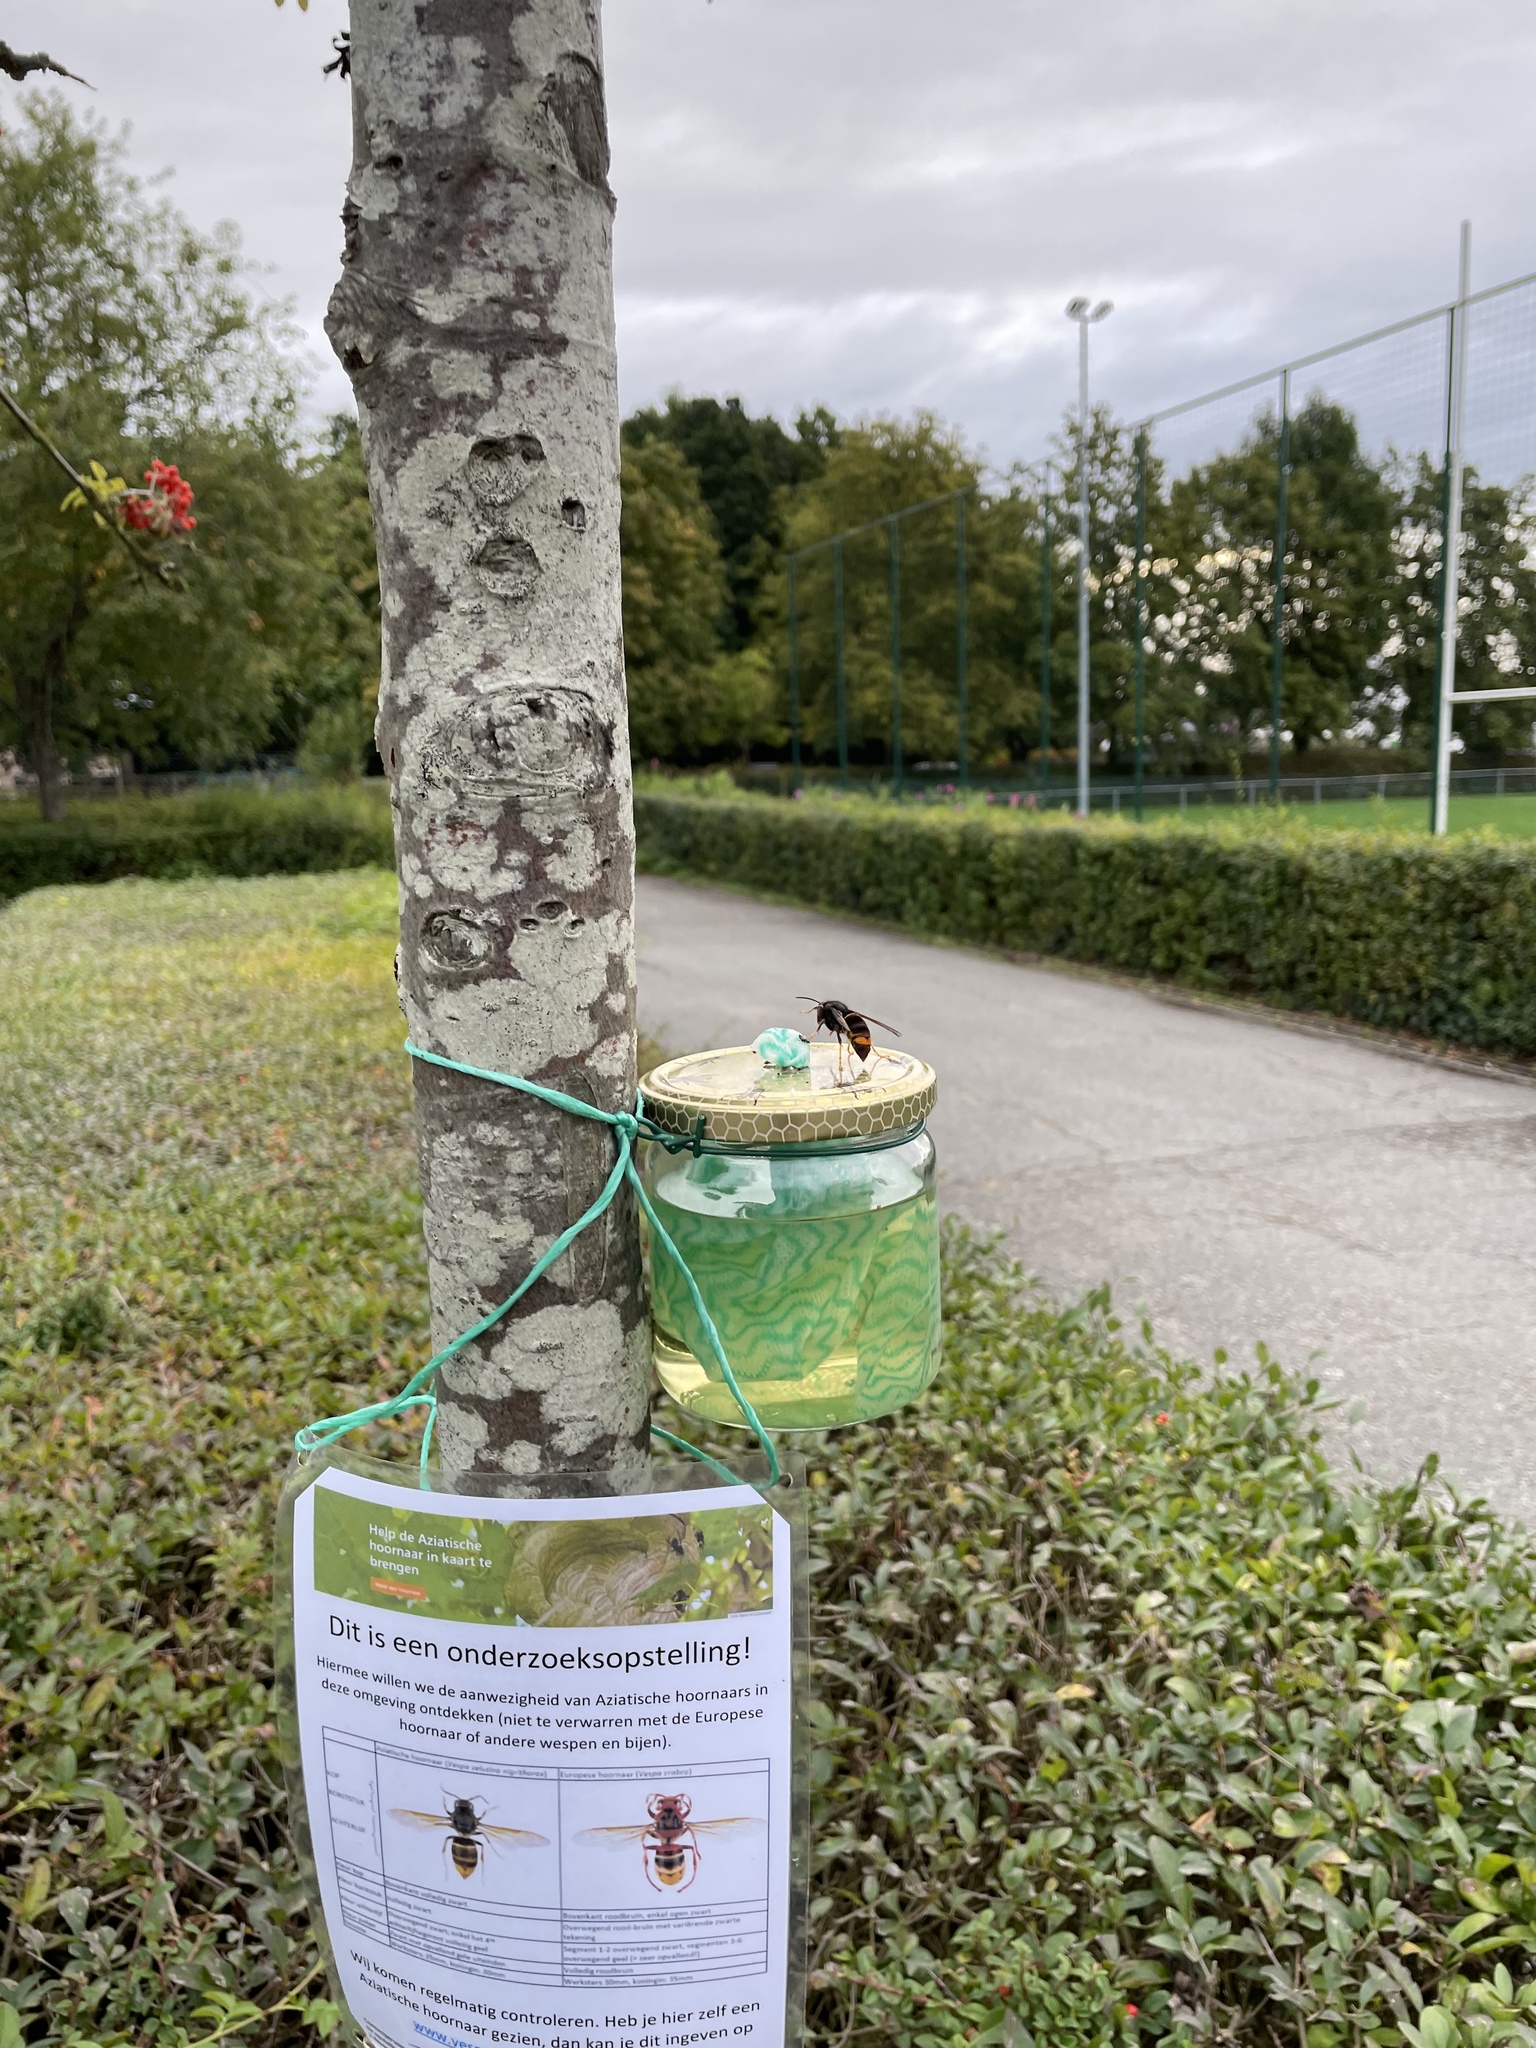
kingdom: Animalia
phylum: Arthropoda
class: Insecta
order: Hymenoptera
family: Vespidae
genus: Vespa
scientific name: Vespa velutina
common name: Asian hornet
